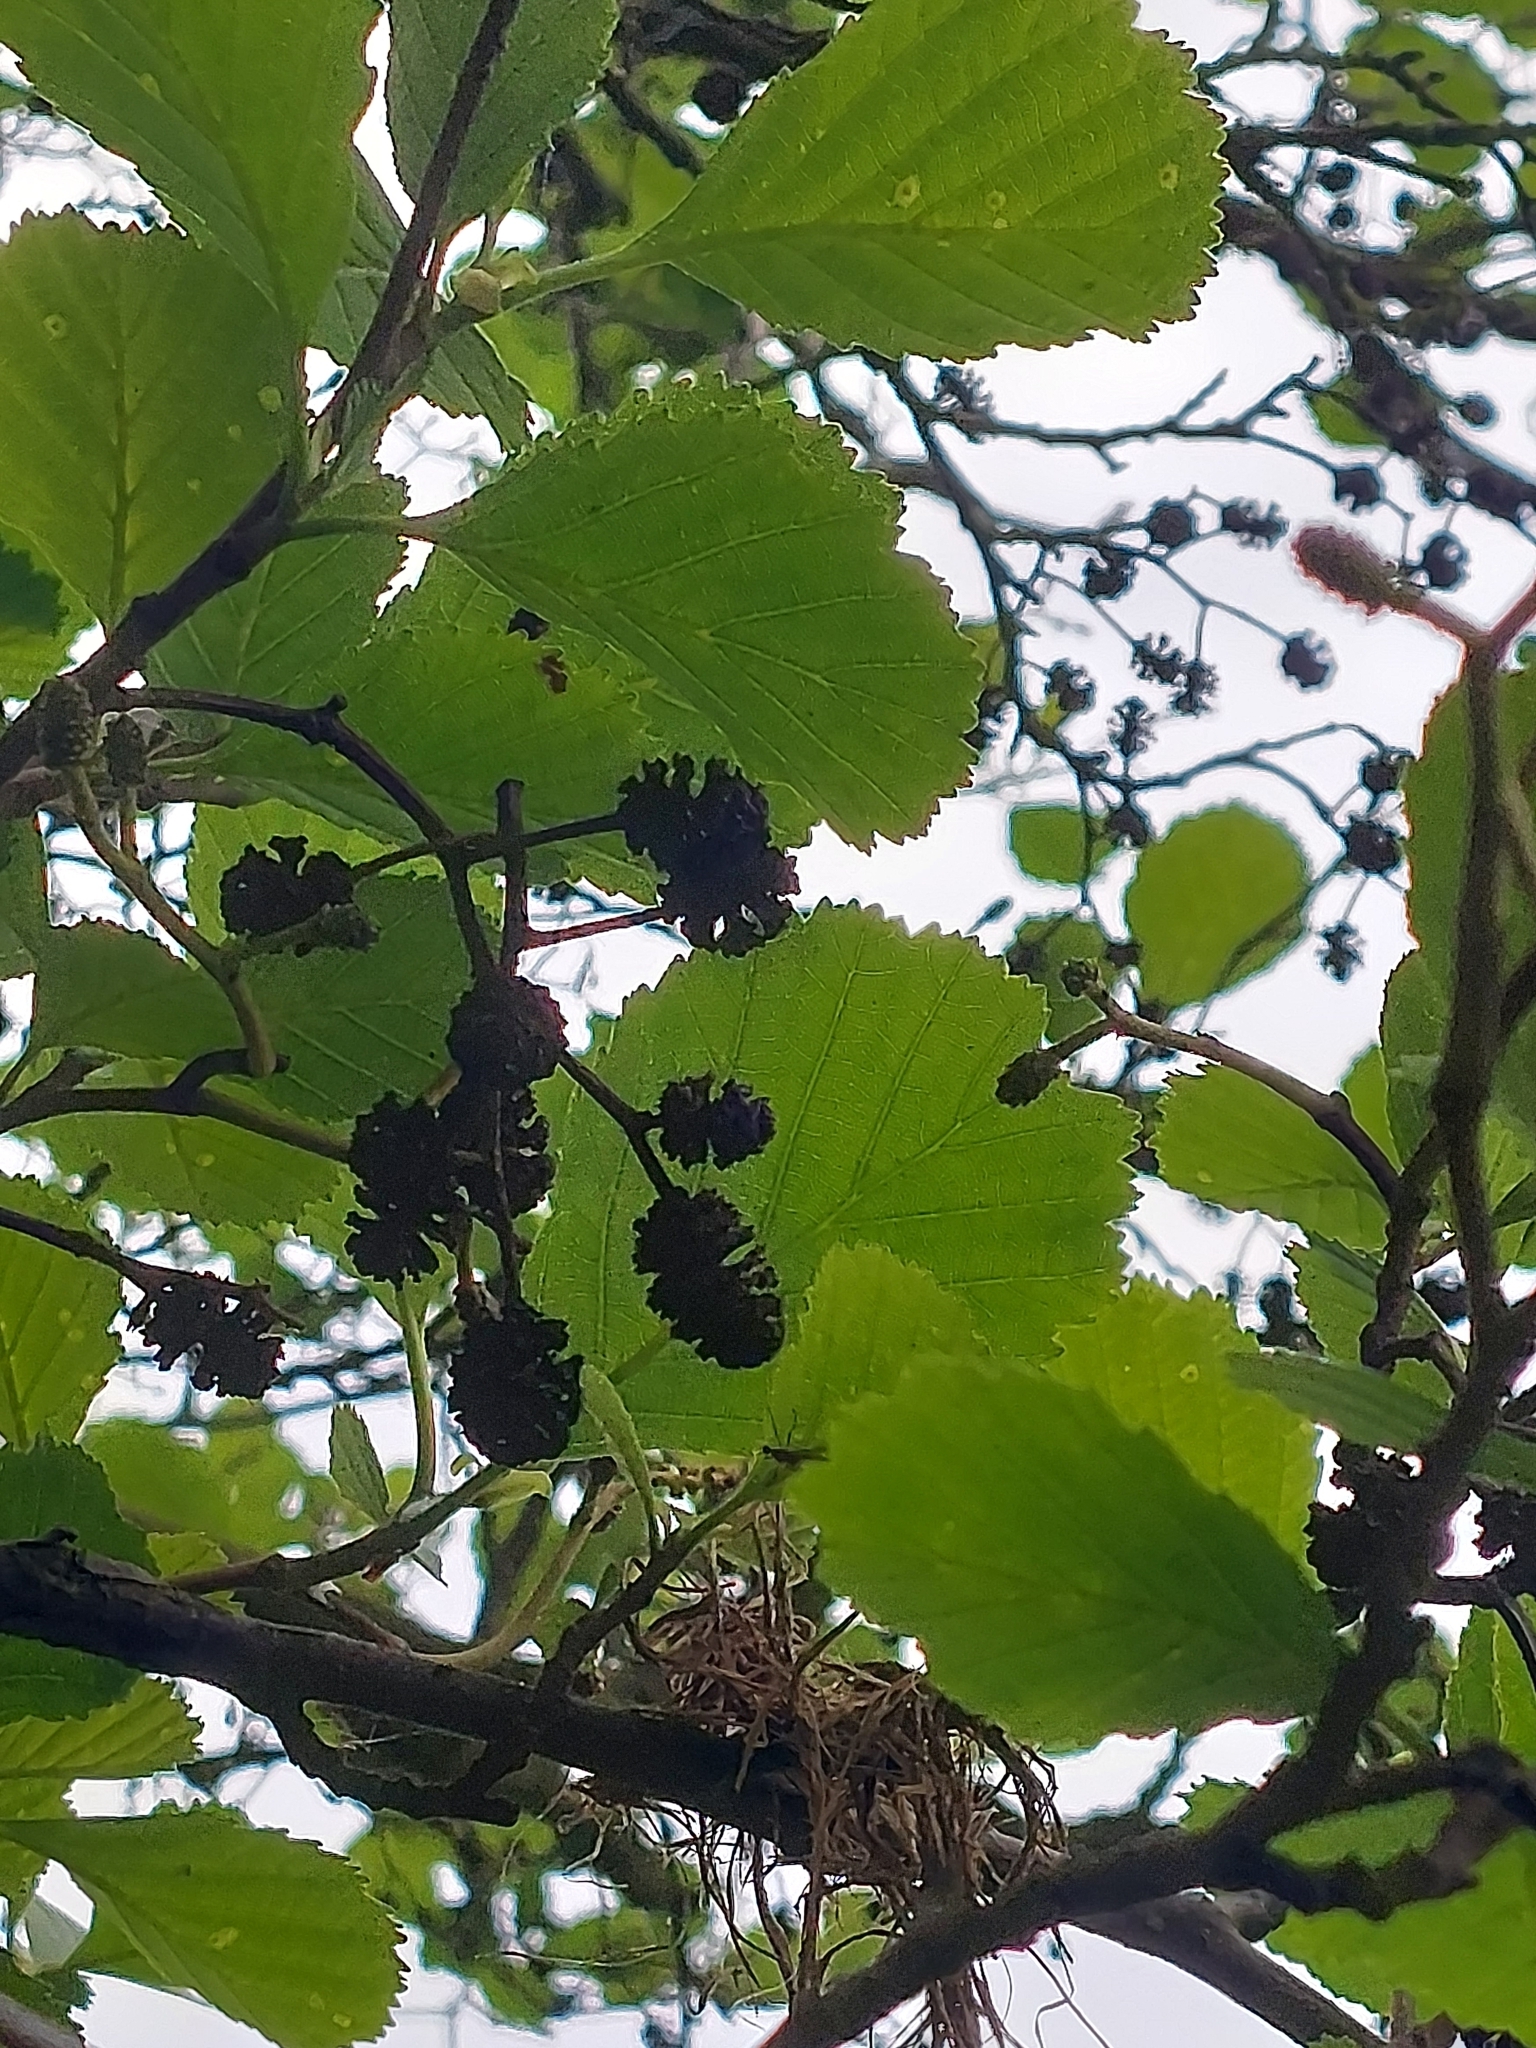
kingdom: Plantae
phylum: Tracheophyta
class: Magnoliopsida
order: Fagales
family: Betulaceae
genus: Alnus
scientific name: Alnus glutinosa
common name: Black alder
